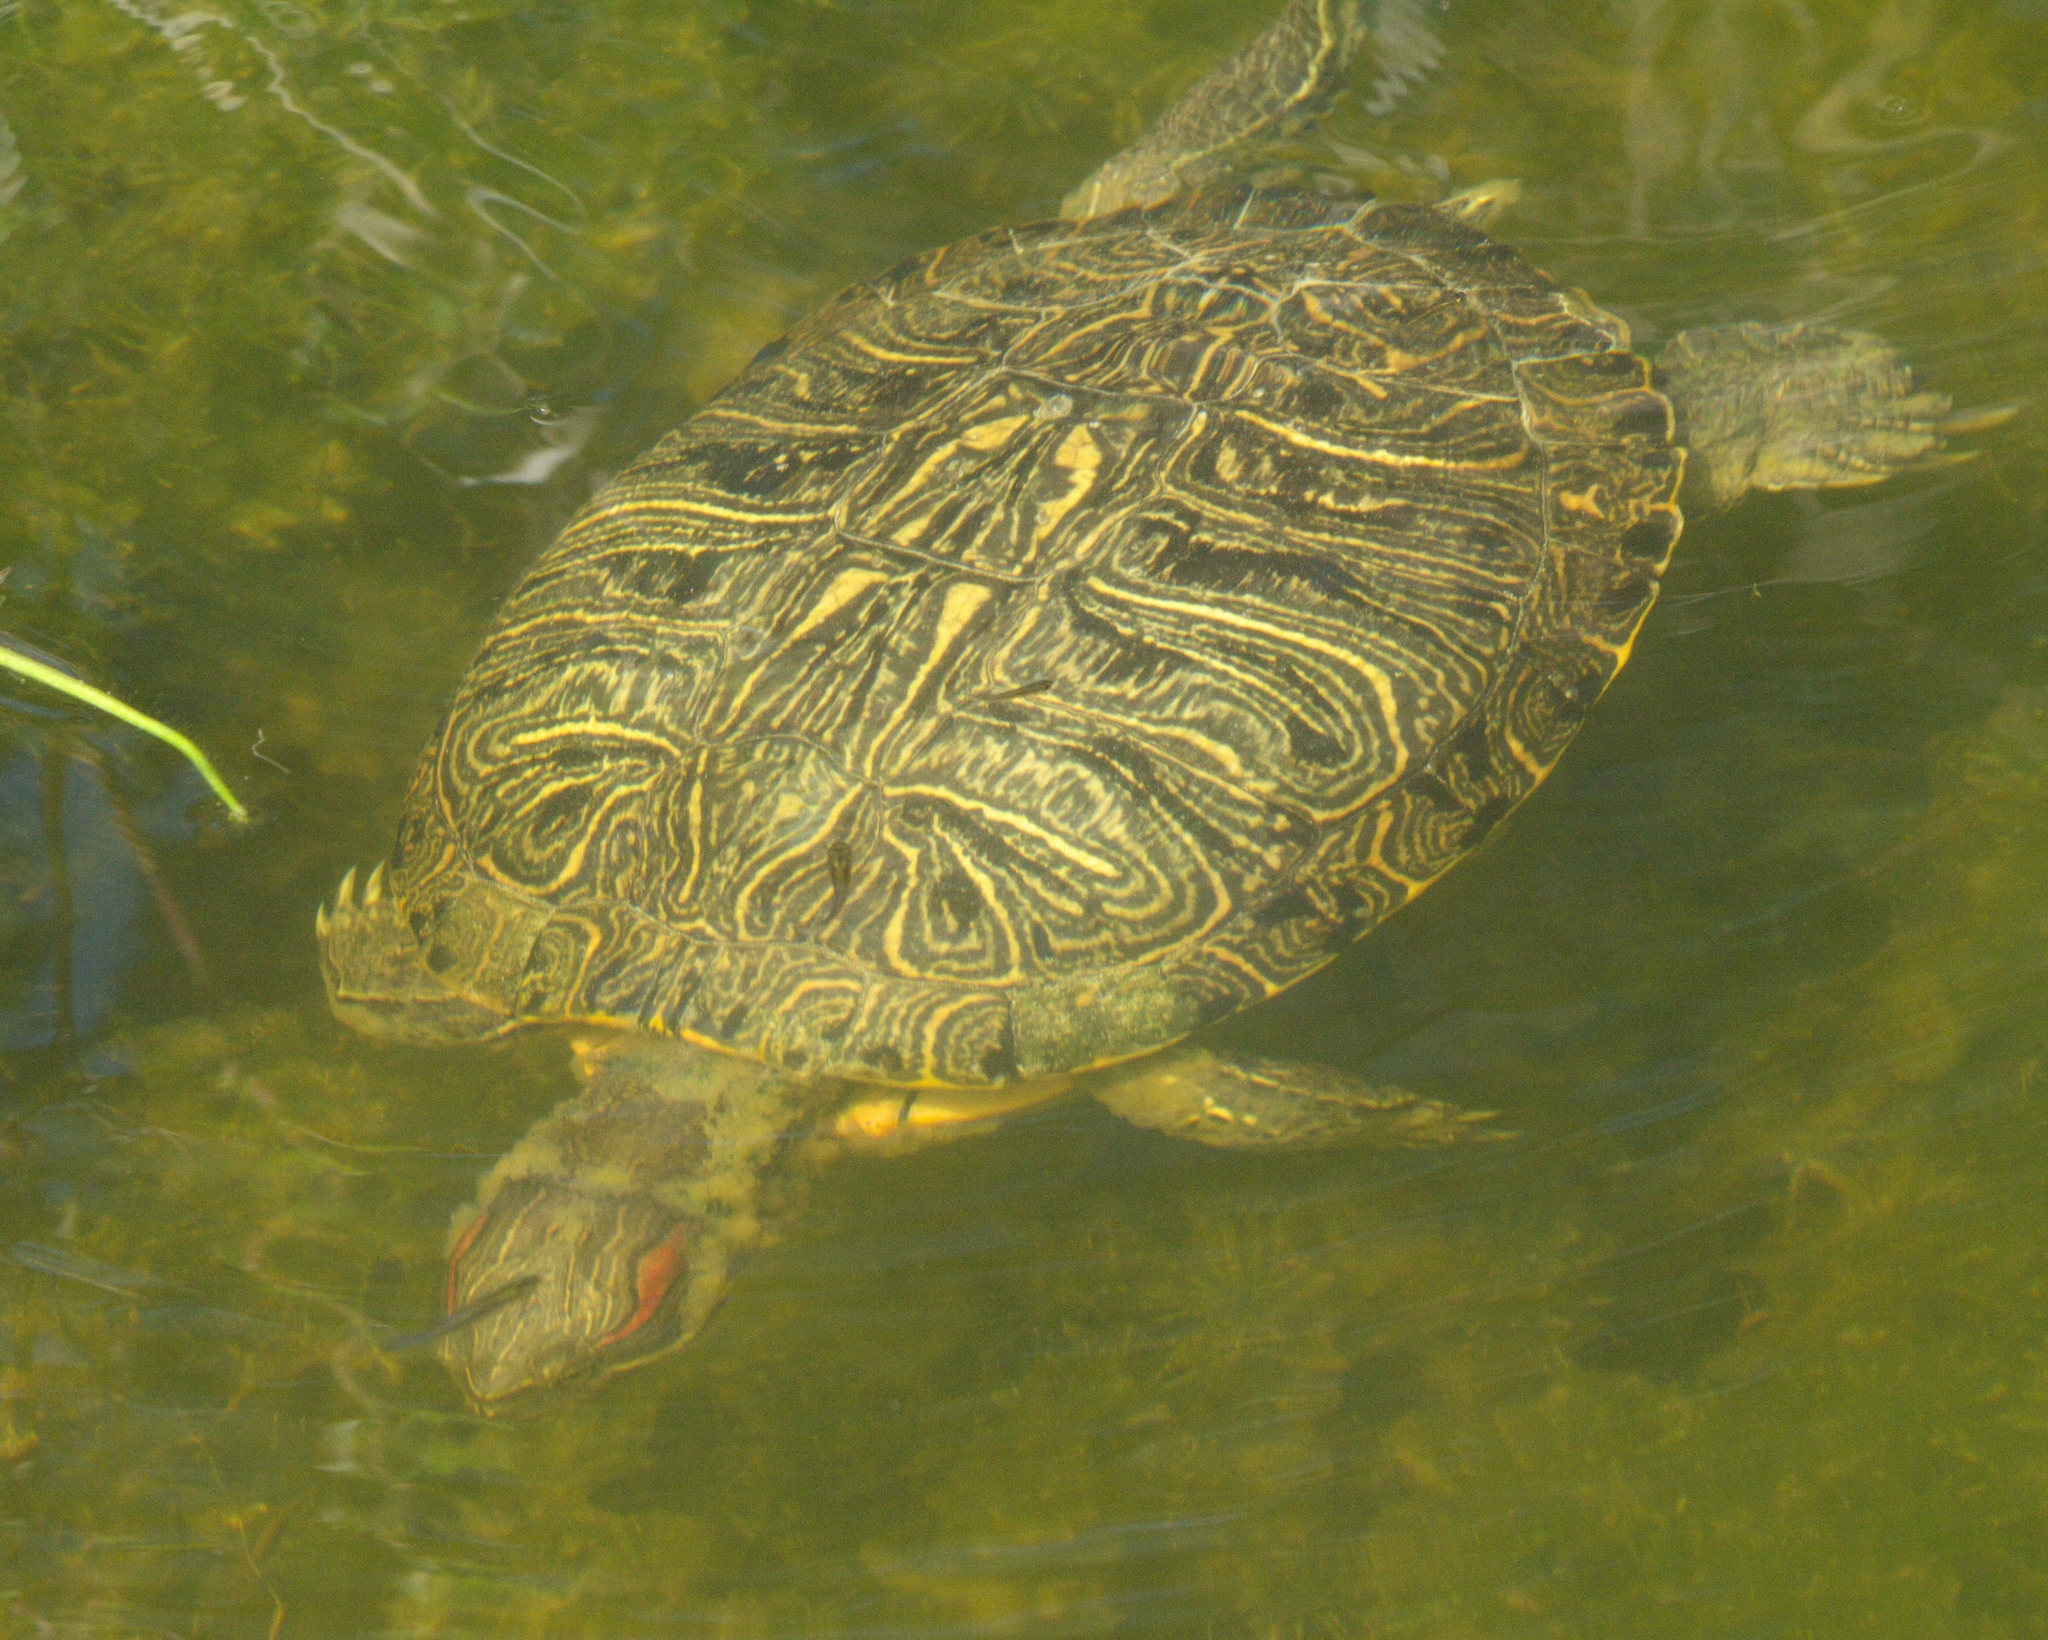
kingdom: Animalia
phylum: Chordata
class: Testudines
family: Emydidae
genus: Trachemys
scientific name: Trachemys scripta
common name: Slider
